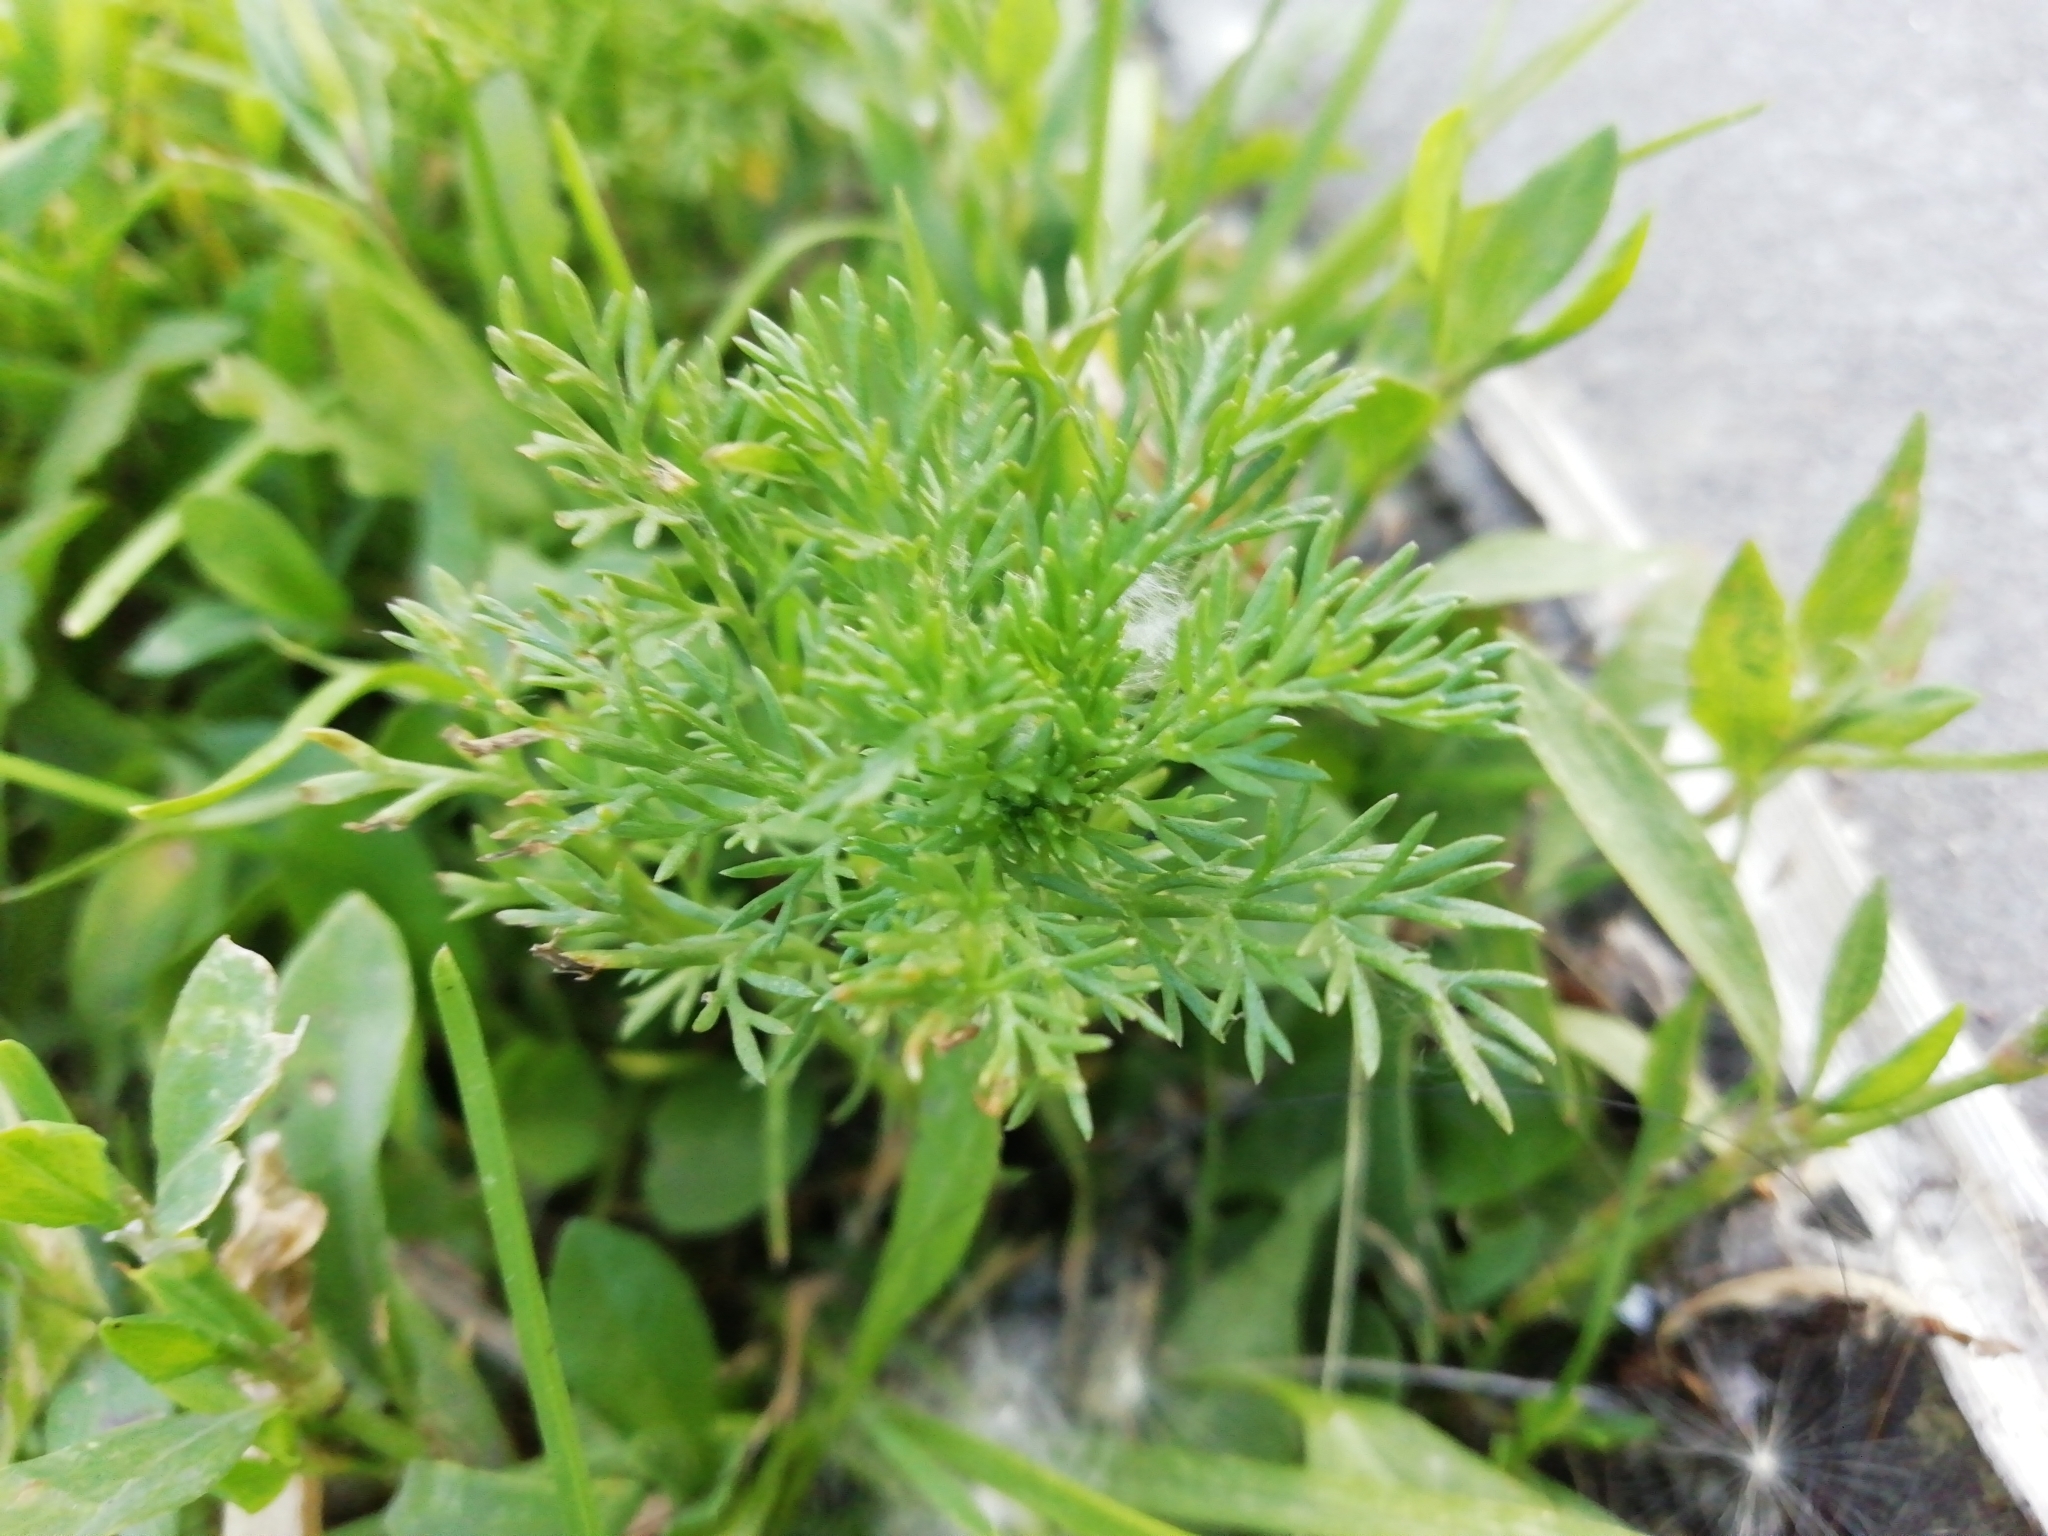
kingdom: Plantae
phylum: Tracheophyta
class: Magnoliopsida
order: Asterales
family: Asteraceae
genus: Matricaria
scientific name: Matricaria discoidea
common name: Disc mayweed
